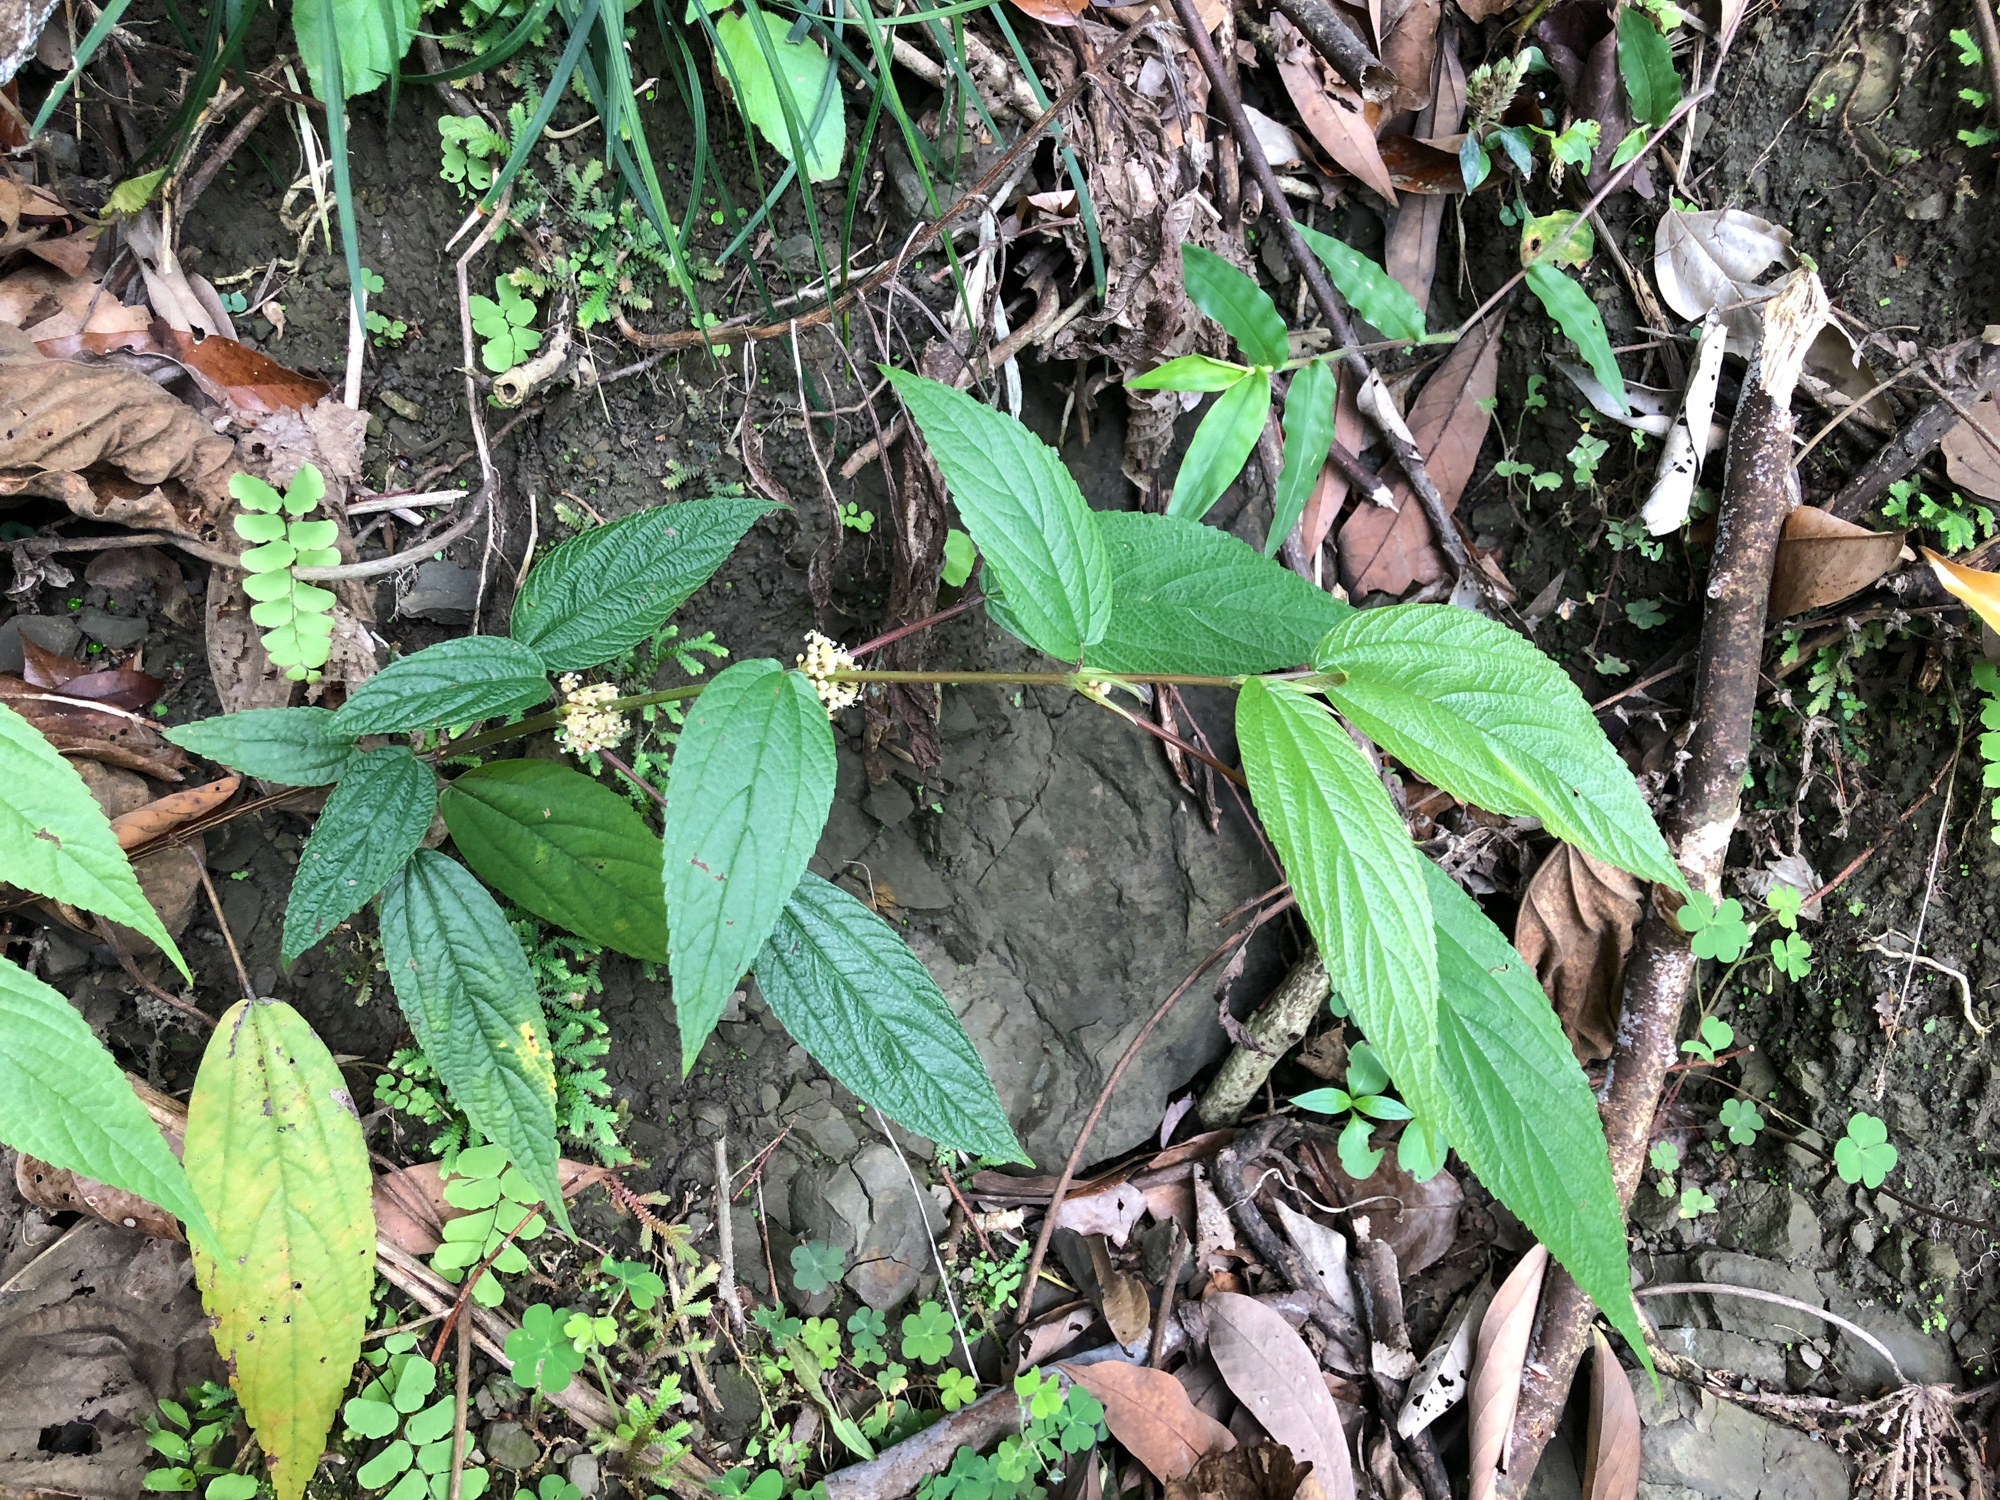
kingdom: Plantae
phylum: Tracheophyta
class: Magnoliopsida
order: Rosales
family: Urticaceae
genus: Boehmeria
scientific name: Boehmeria zollingeriana
